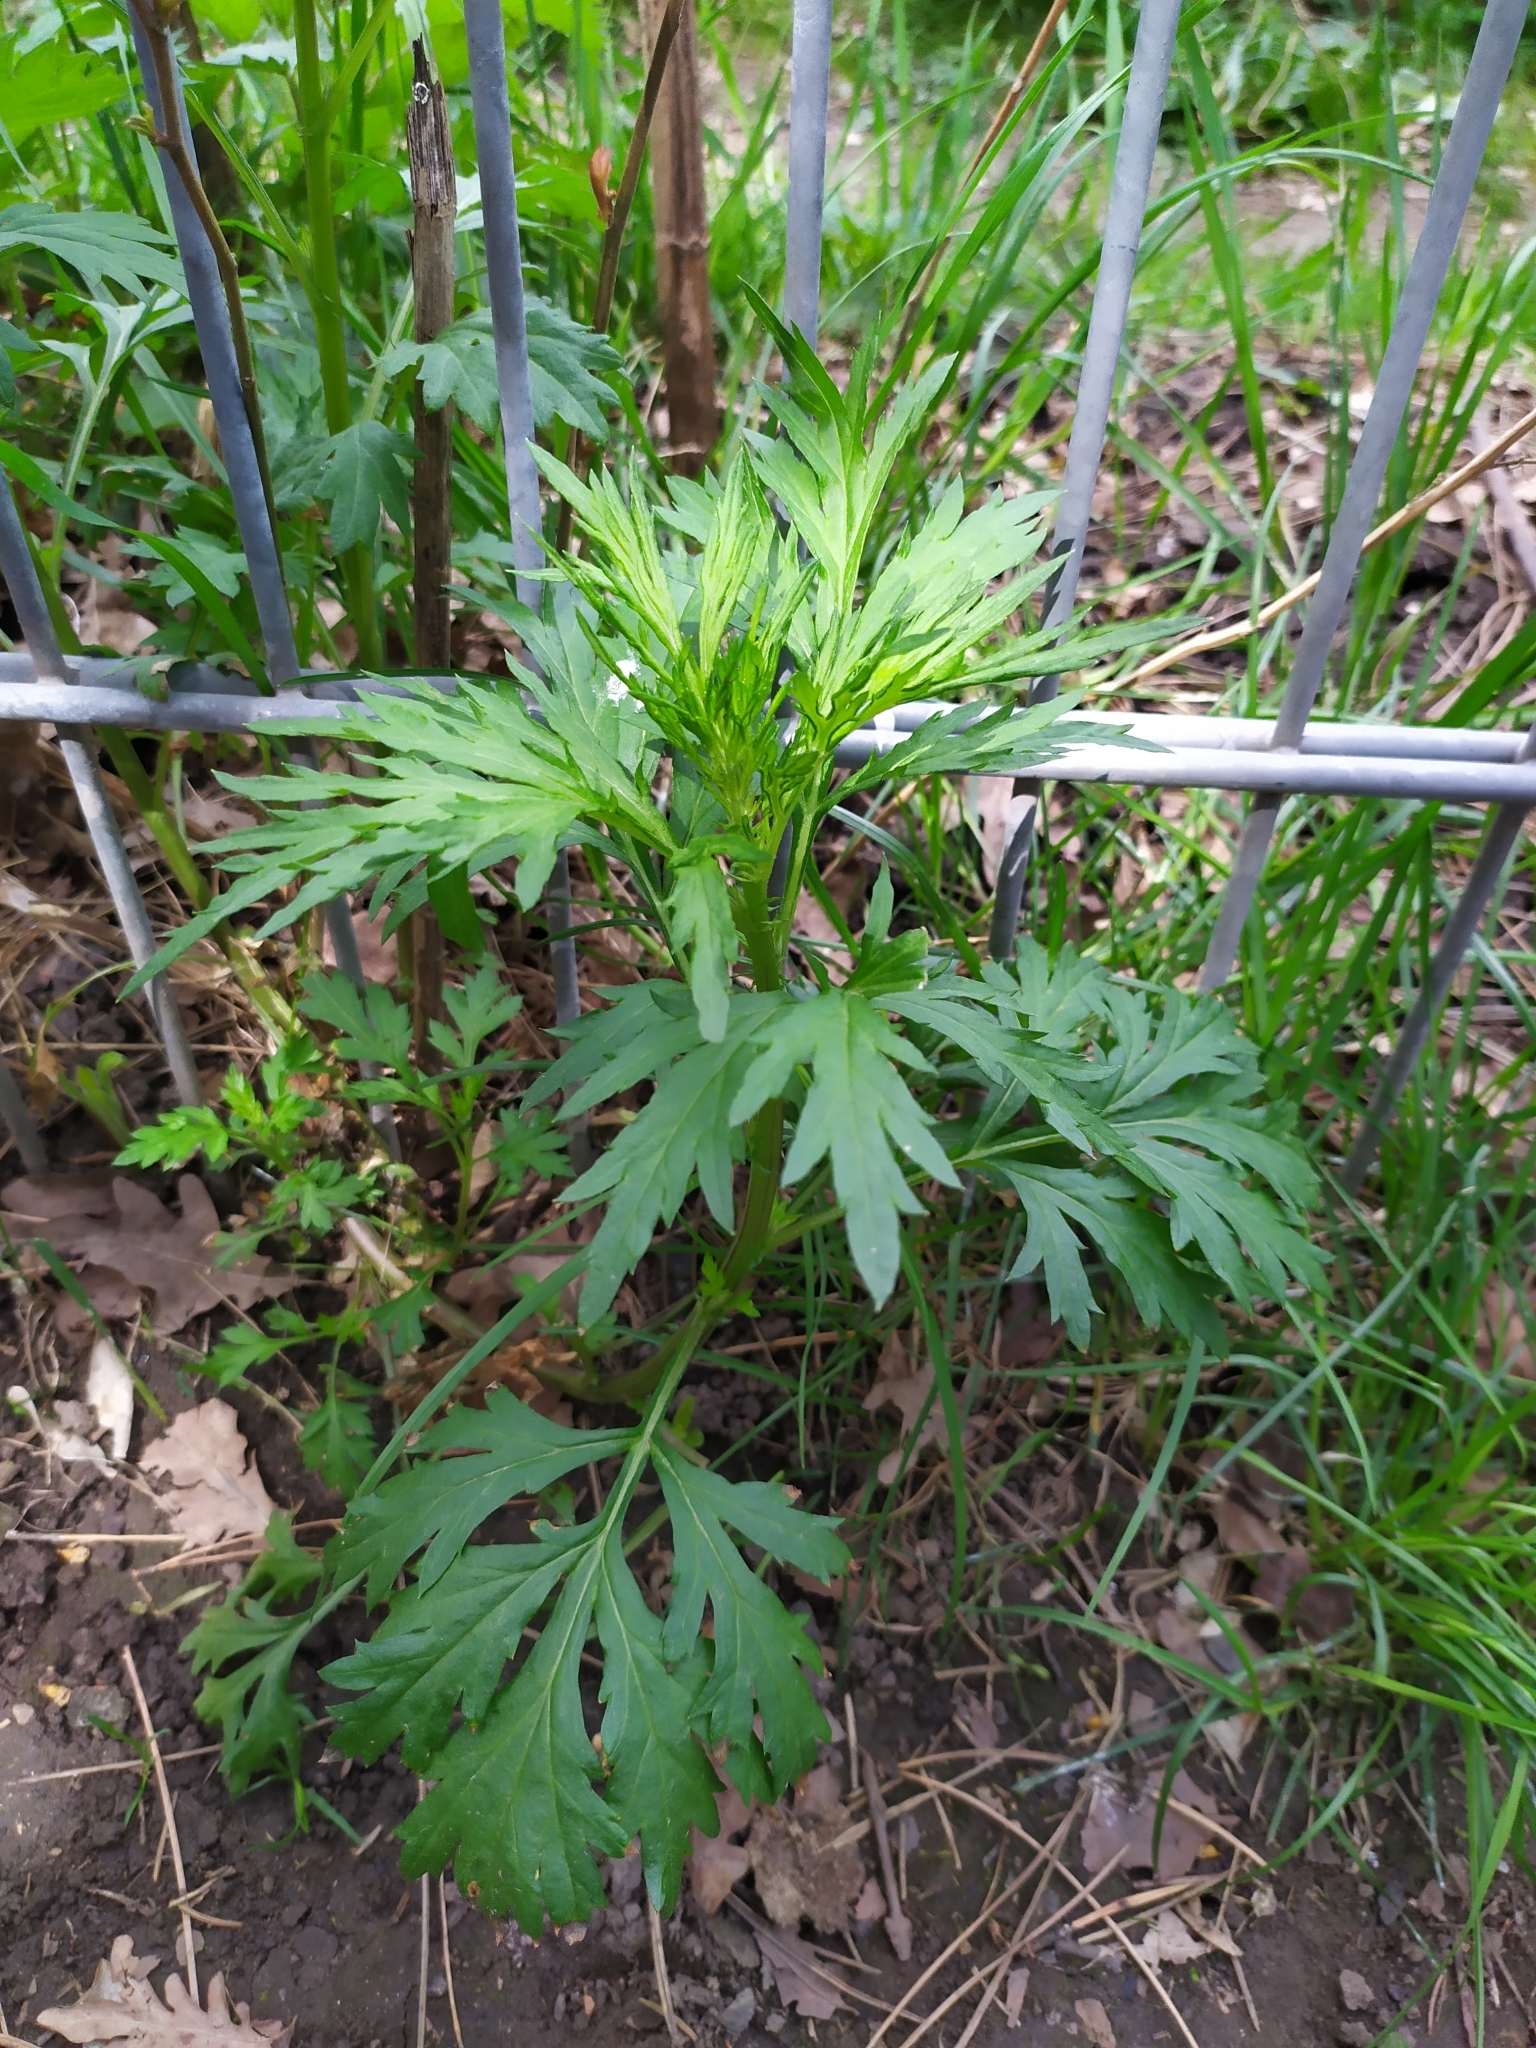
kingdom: Plantae
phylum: Tracheophyta
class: Magnoliopsida
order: Asterales
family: Asteraceae
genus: Artemisia
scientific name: Artemisia vulgaris
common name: Mugwort
